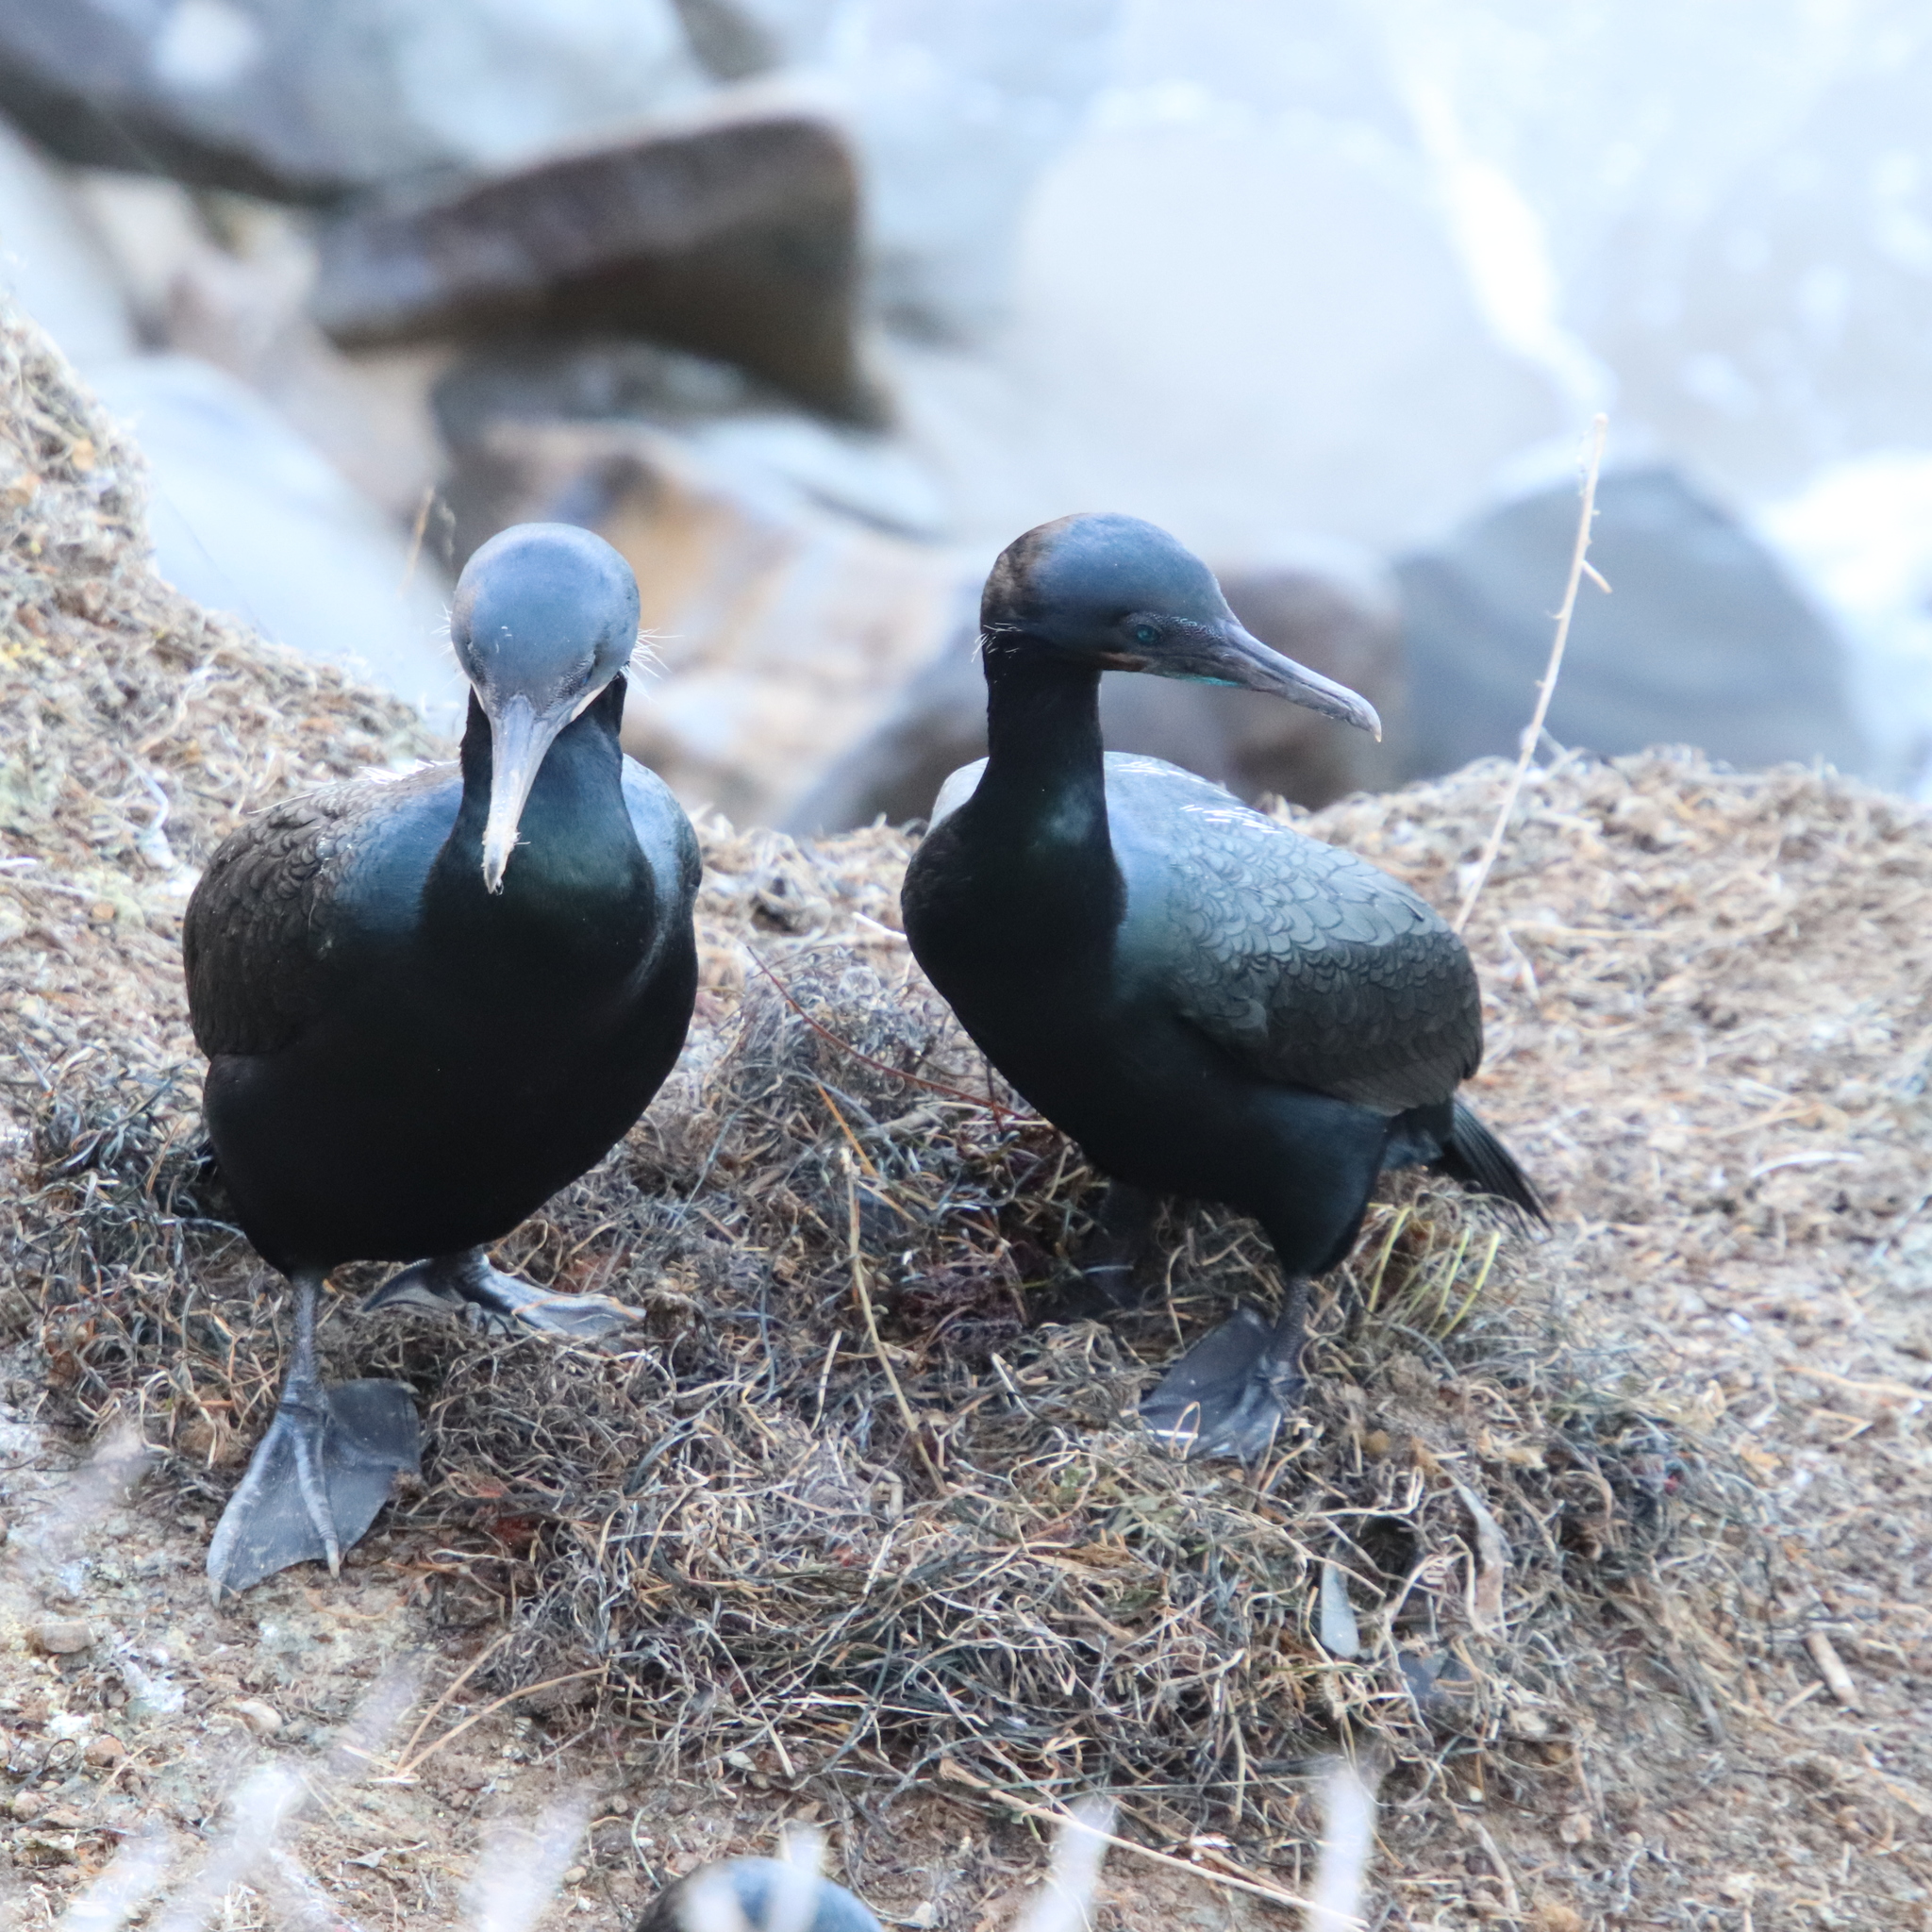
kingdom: Animalia
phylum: Chordata
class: Aves
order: Suliformes
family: Phalacrocoracidae
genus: Urile
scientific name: Urile penicillatus
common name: Brandt's cormorant
